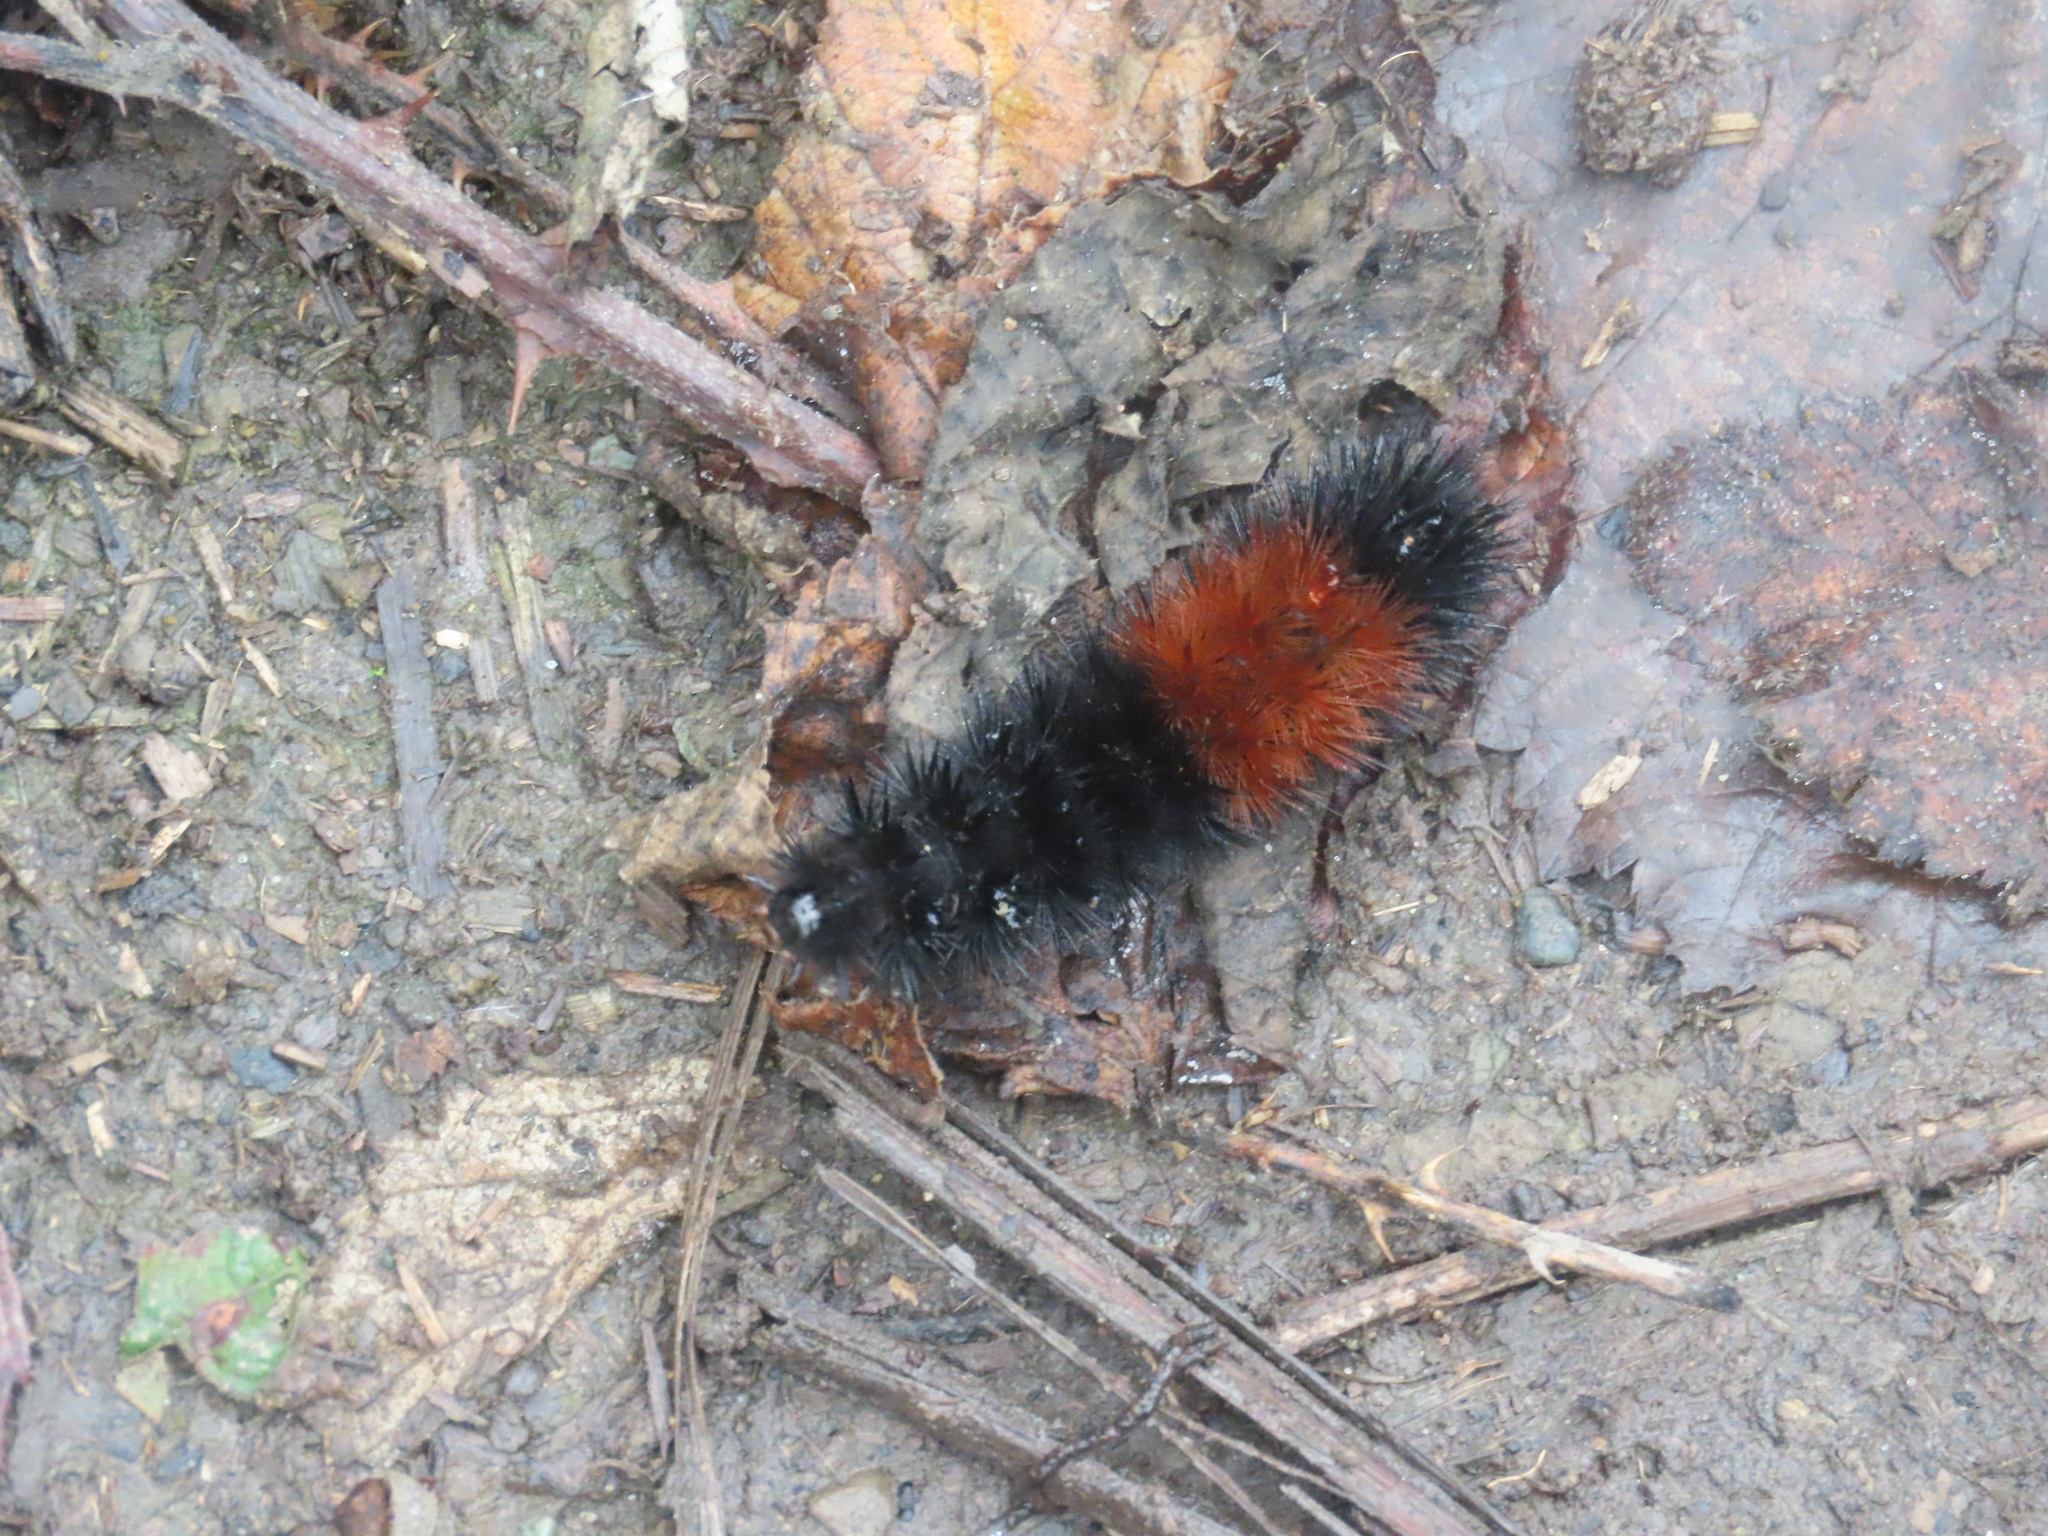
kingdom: Animalia
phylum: Arthropoda
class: Insecta
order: Lepidoptera
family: Erebidae
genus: Pyrrharctia
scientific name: Pyrrharctia isabella
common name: Isabella tiger moth
